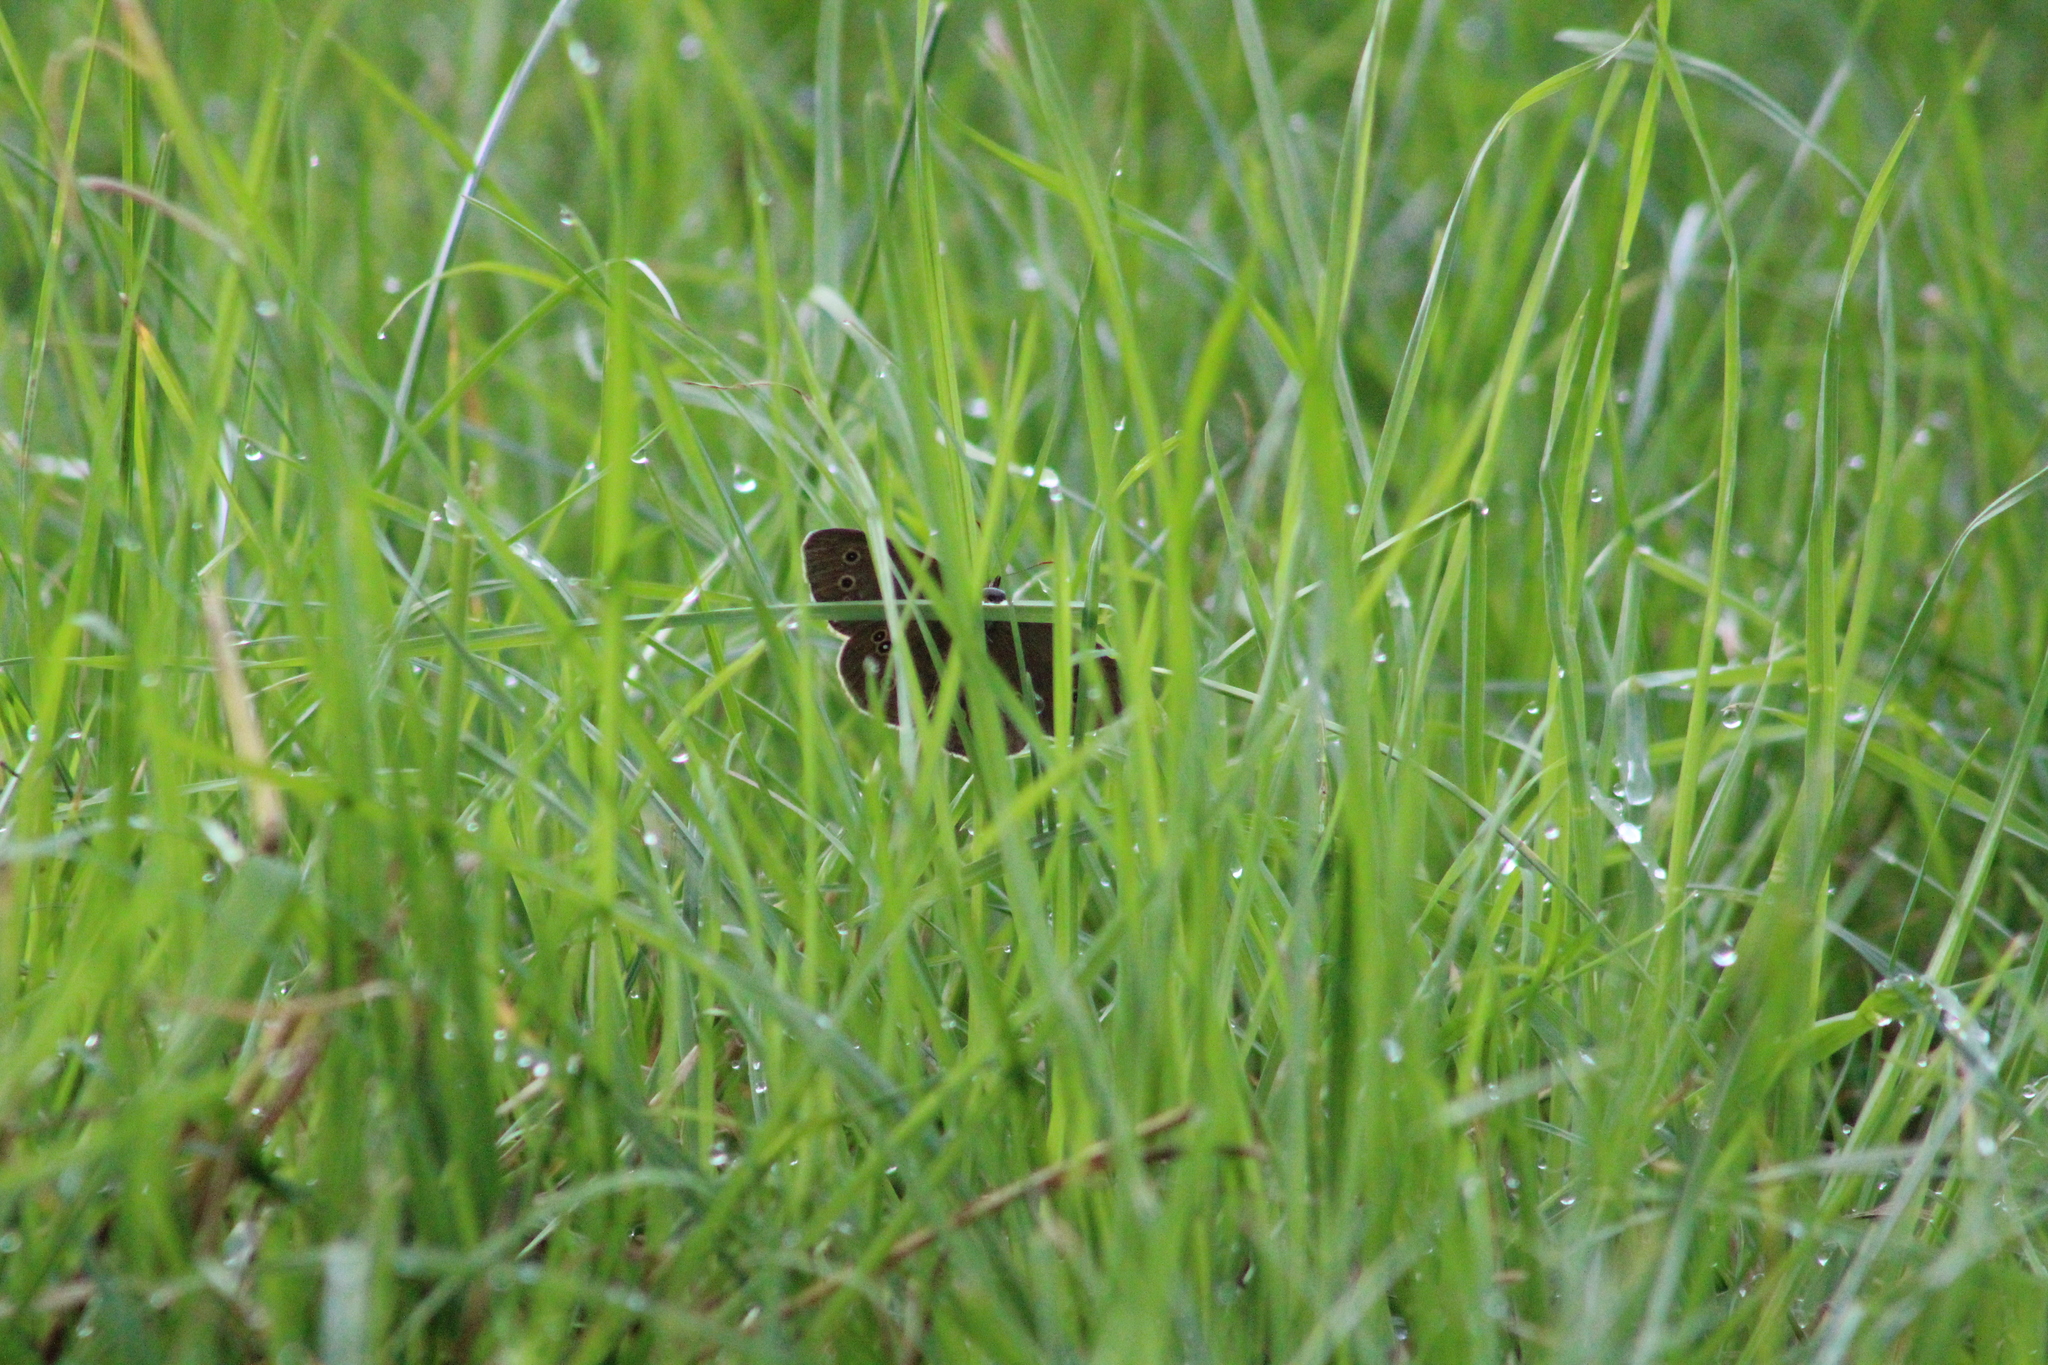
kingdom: Animalia
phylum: Arthropoda
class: Insecta
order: Lepidoptera
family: Nymphalidae
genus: Aphantopus
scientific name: Aphantopus hyperantus
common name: Ringlet
